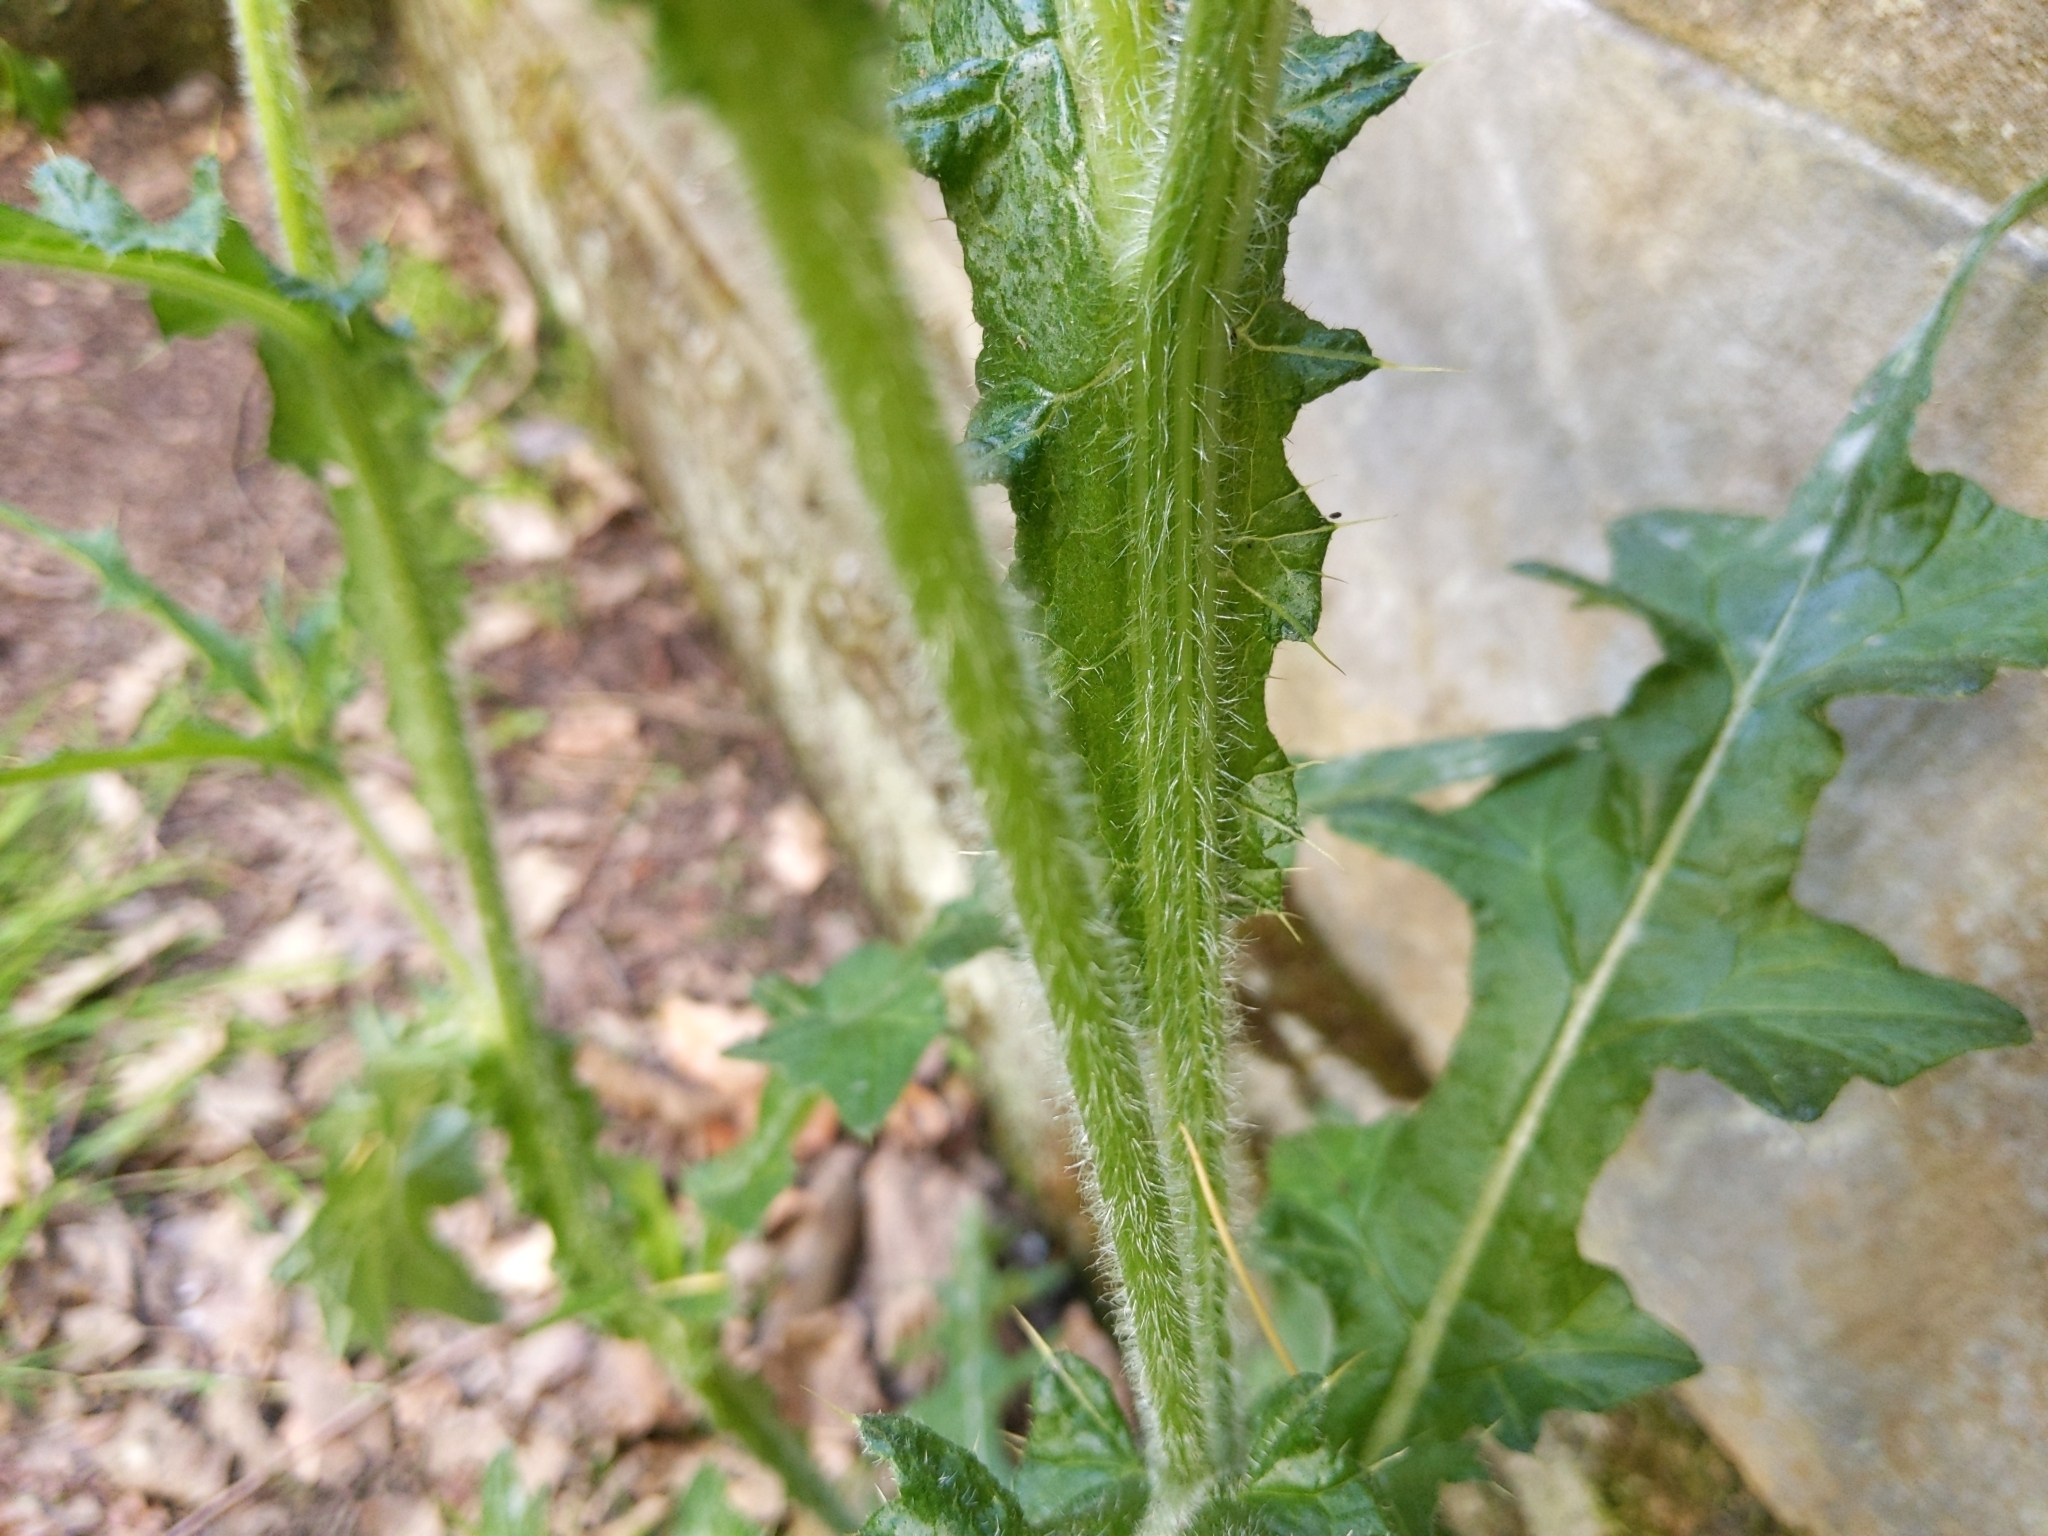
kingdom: Plantae
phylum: Tracheophyta
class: Magnoliopsida
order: Asterales
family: Asteraceae
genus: Cirsium
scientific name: Cirsium vulgare
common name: Bull thistle
